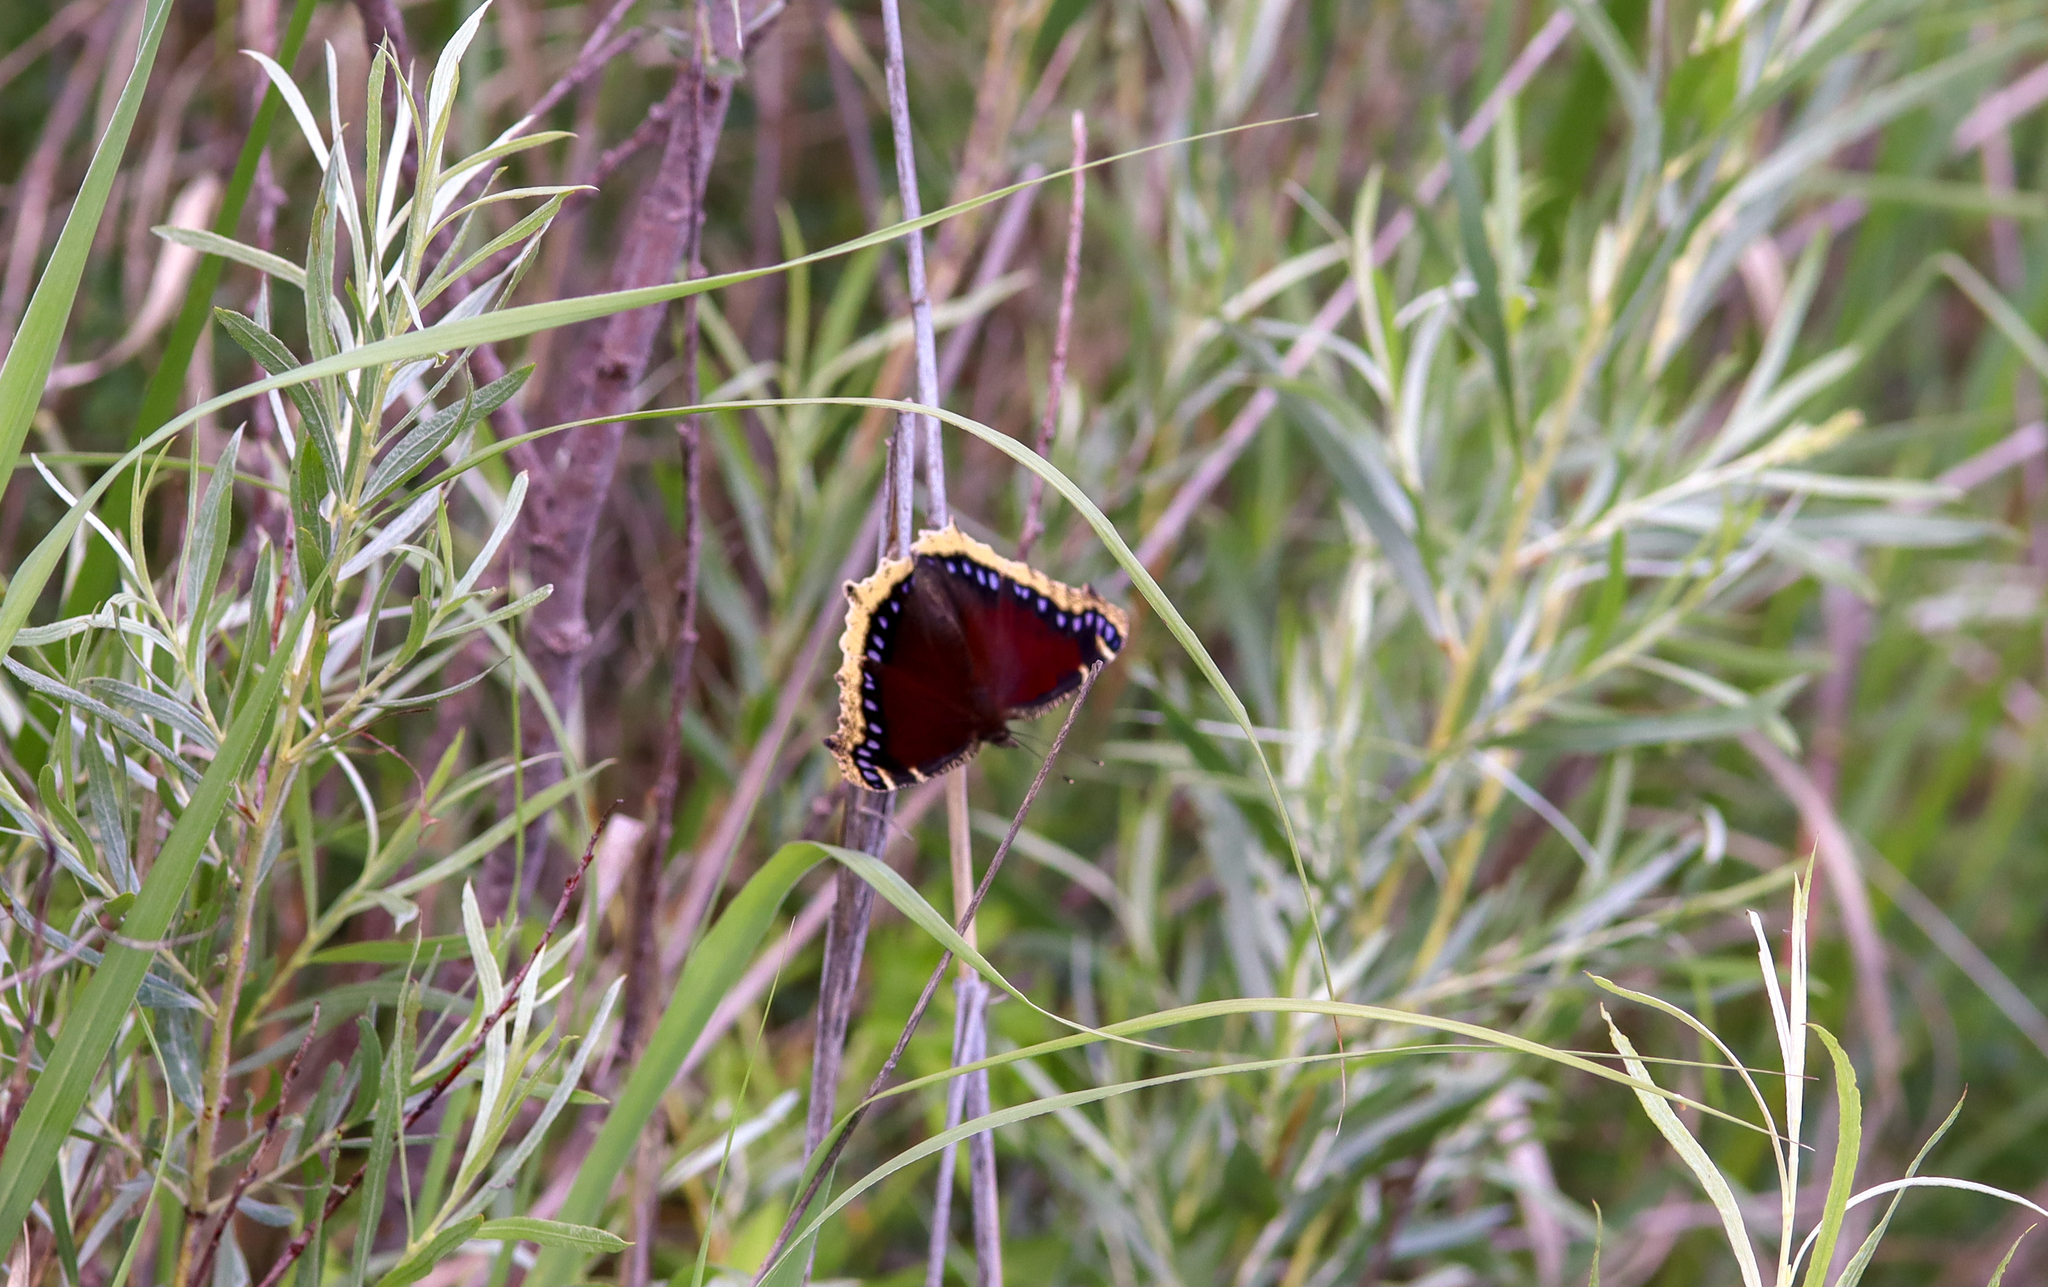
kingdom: Animalia
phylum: Arthropoda
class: Insecta
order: Lepidoptera
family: Nymphalidae
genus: Nymphalis
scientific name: Nymphalis antiopa
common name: Camberwell beauty
